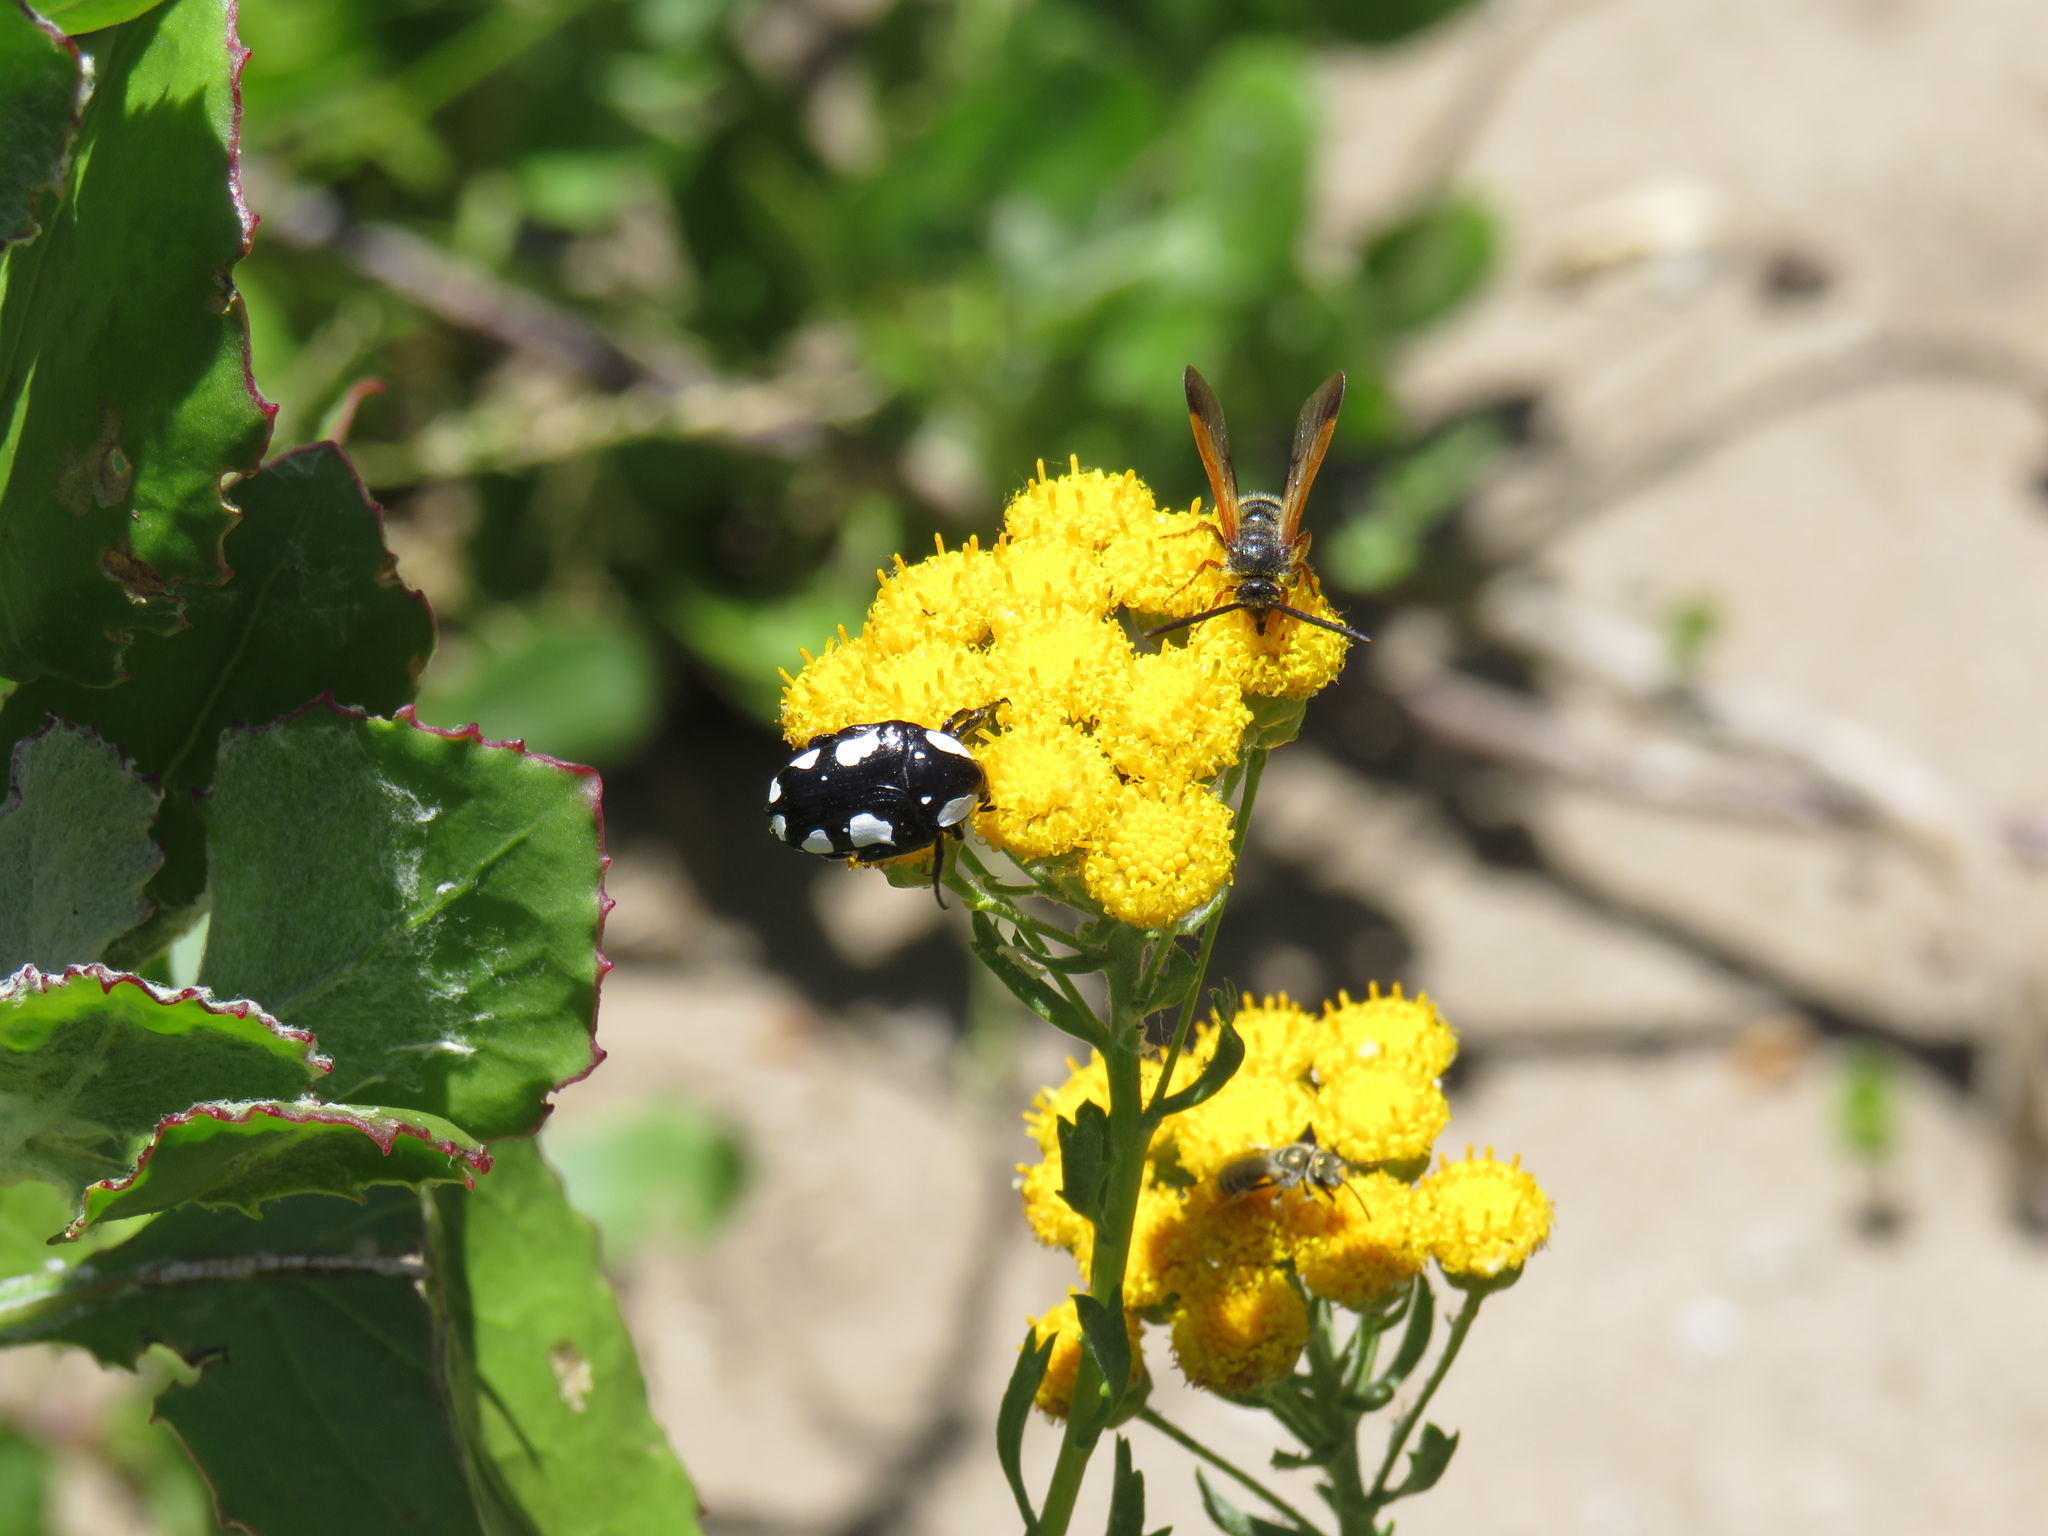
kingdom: Animalia
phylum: Arthropoda
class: Insecta
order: Coleoptera
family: Scarabaeidae
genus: Mausoleopsis
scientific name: Mausoleopsis amabilis
